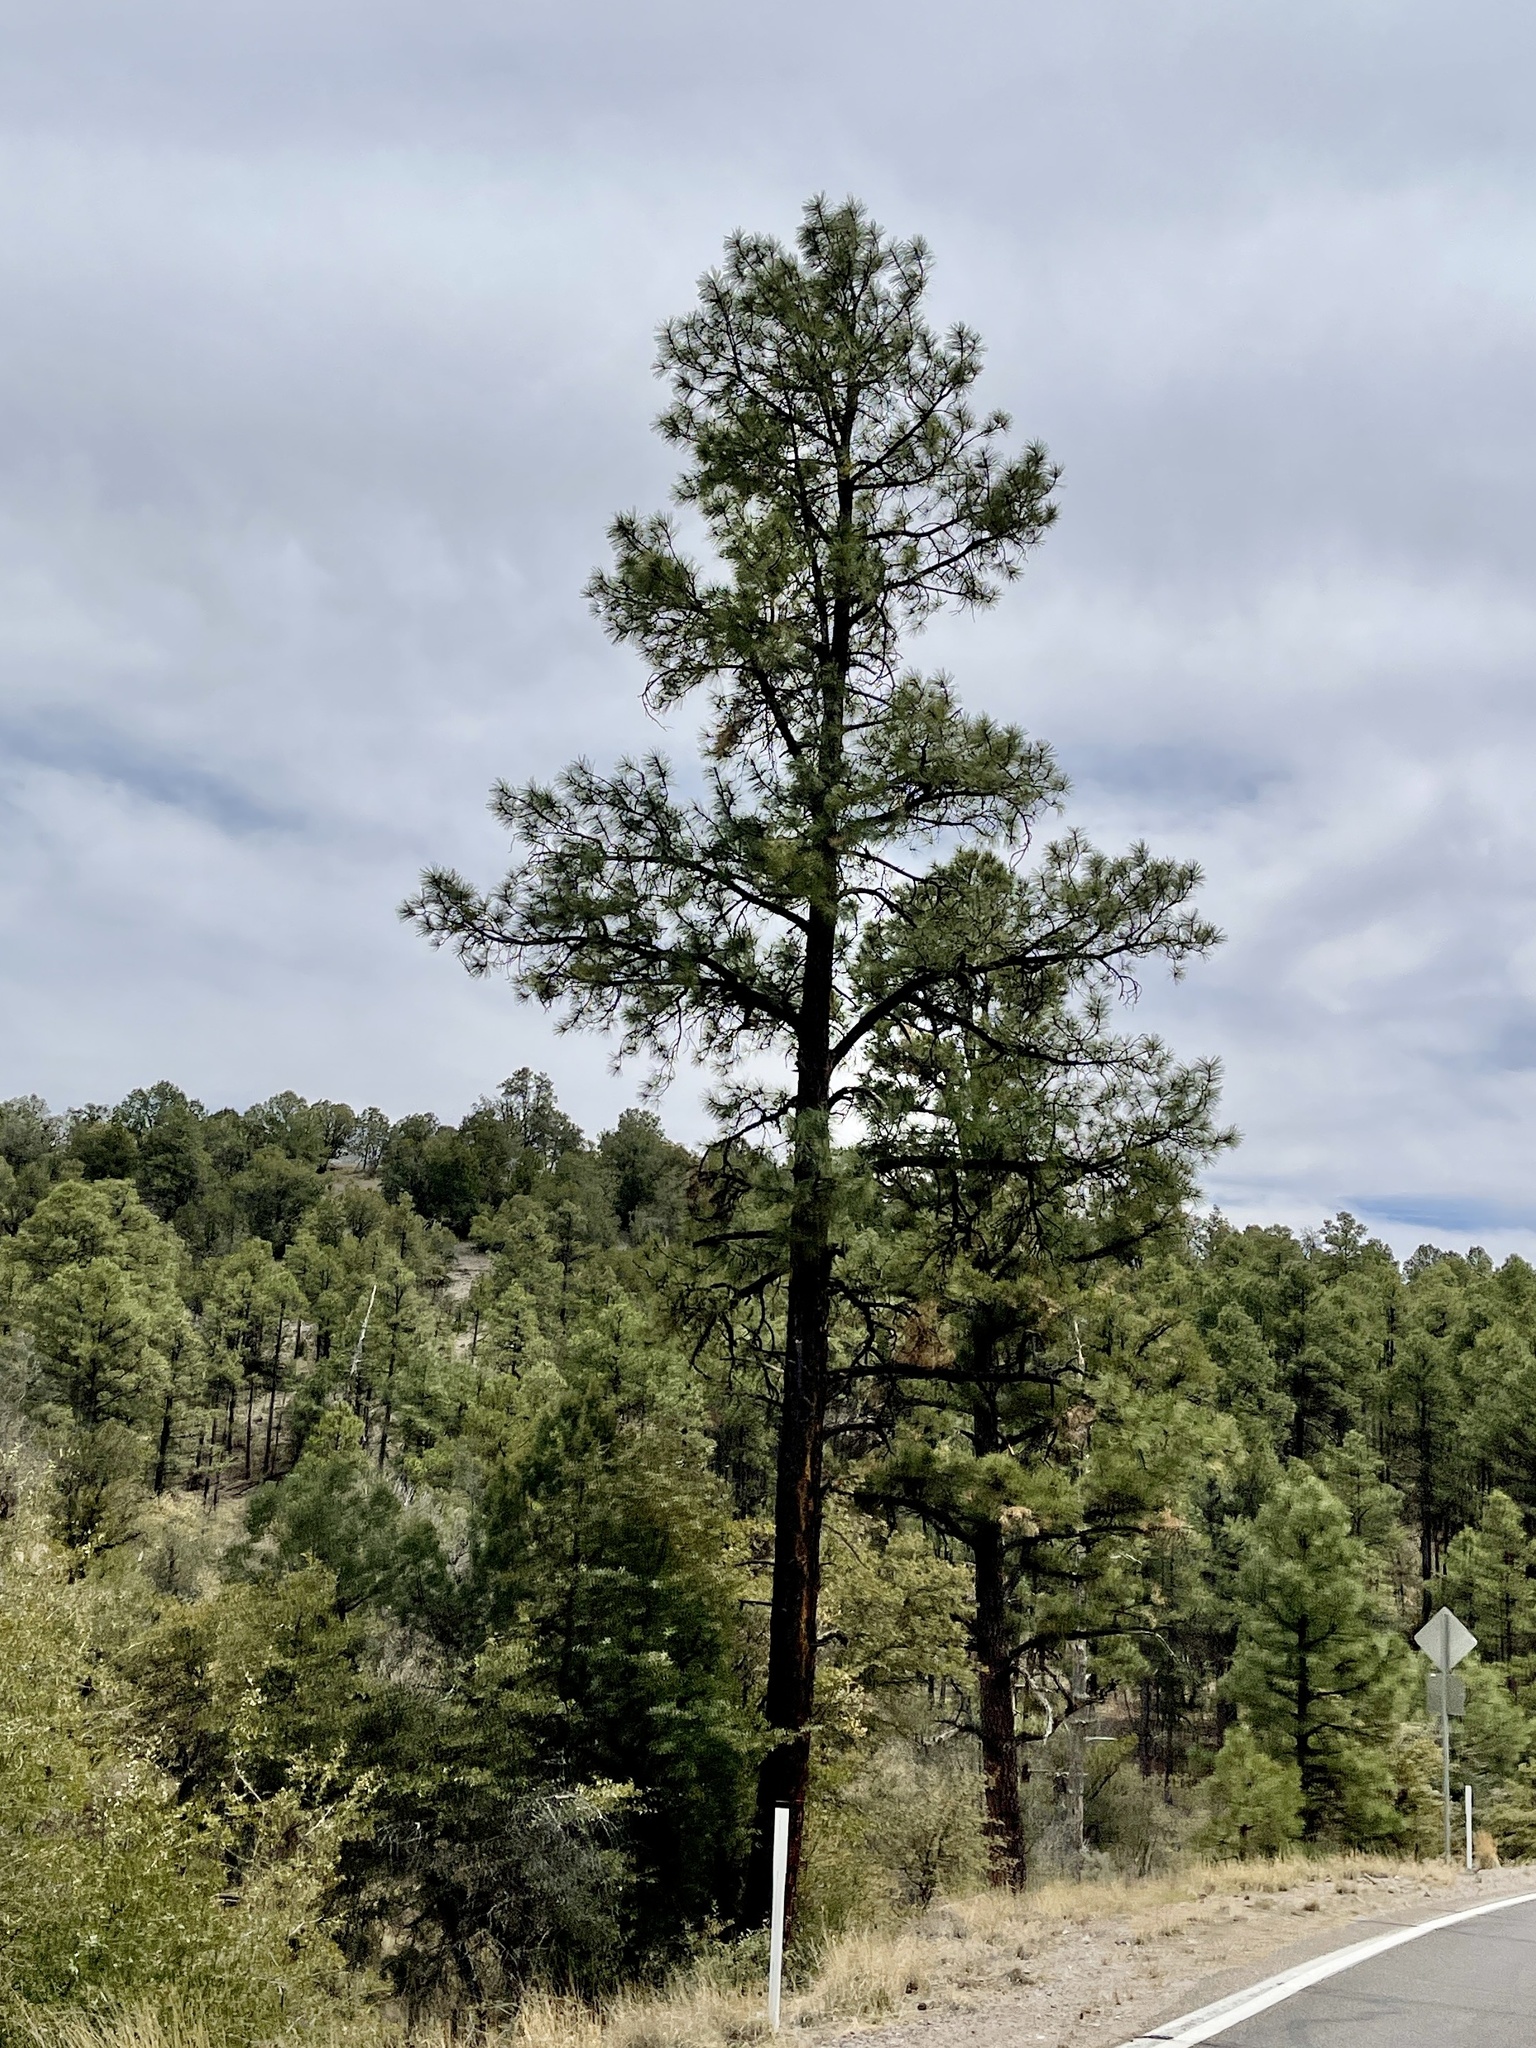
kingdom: Plantae
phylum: Tracheophyta
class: Pinopsida
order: Pinales
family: Pinaceae
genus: Pinus
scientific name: Pinus ponderosa
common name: Western yellow-pine
